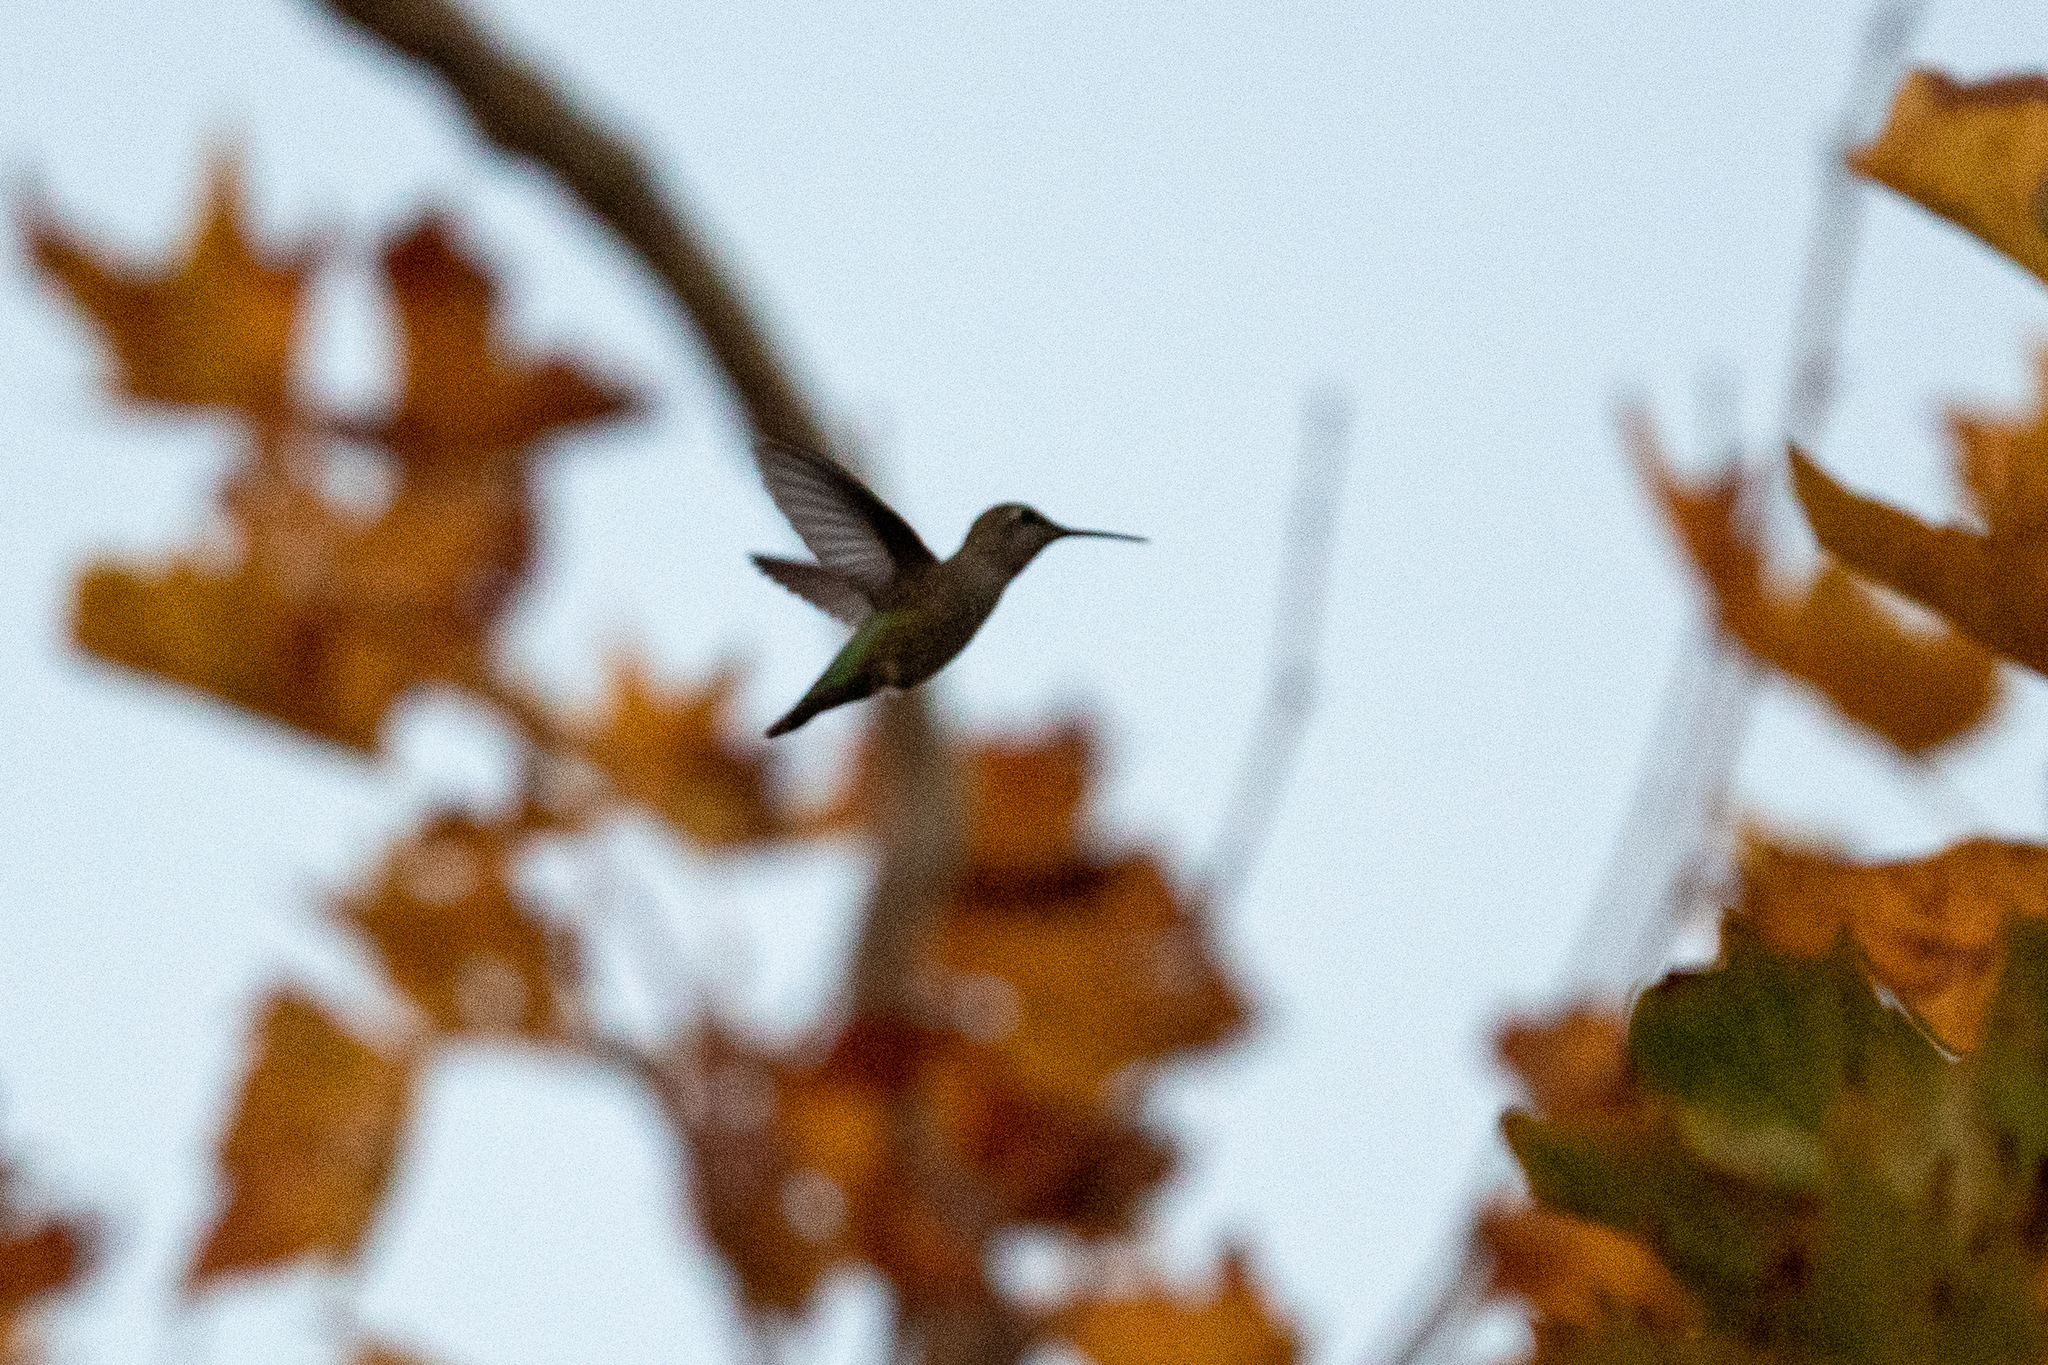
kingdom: Animalia
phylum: Chordata
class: Aves
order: Apodiformes
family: Trochilidae
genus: Calypte
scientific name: Calypte anna
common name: Anna's hummingbird
